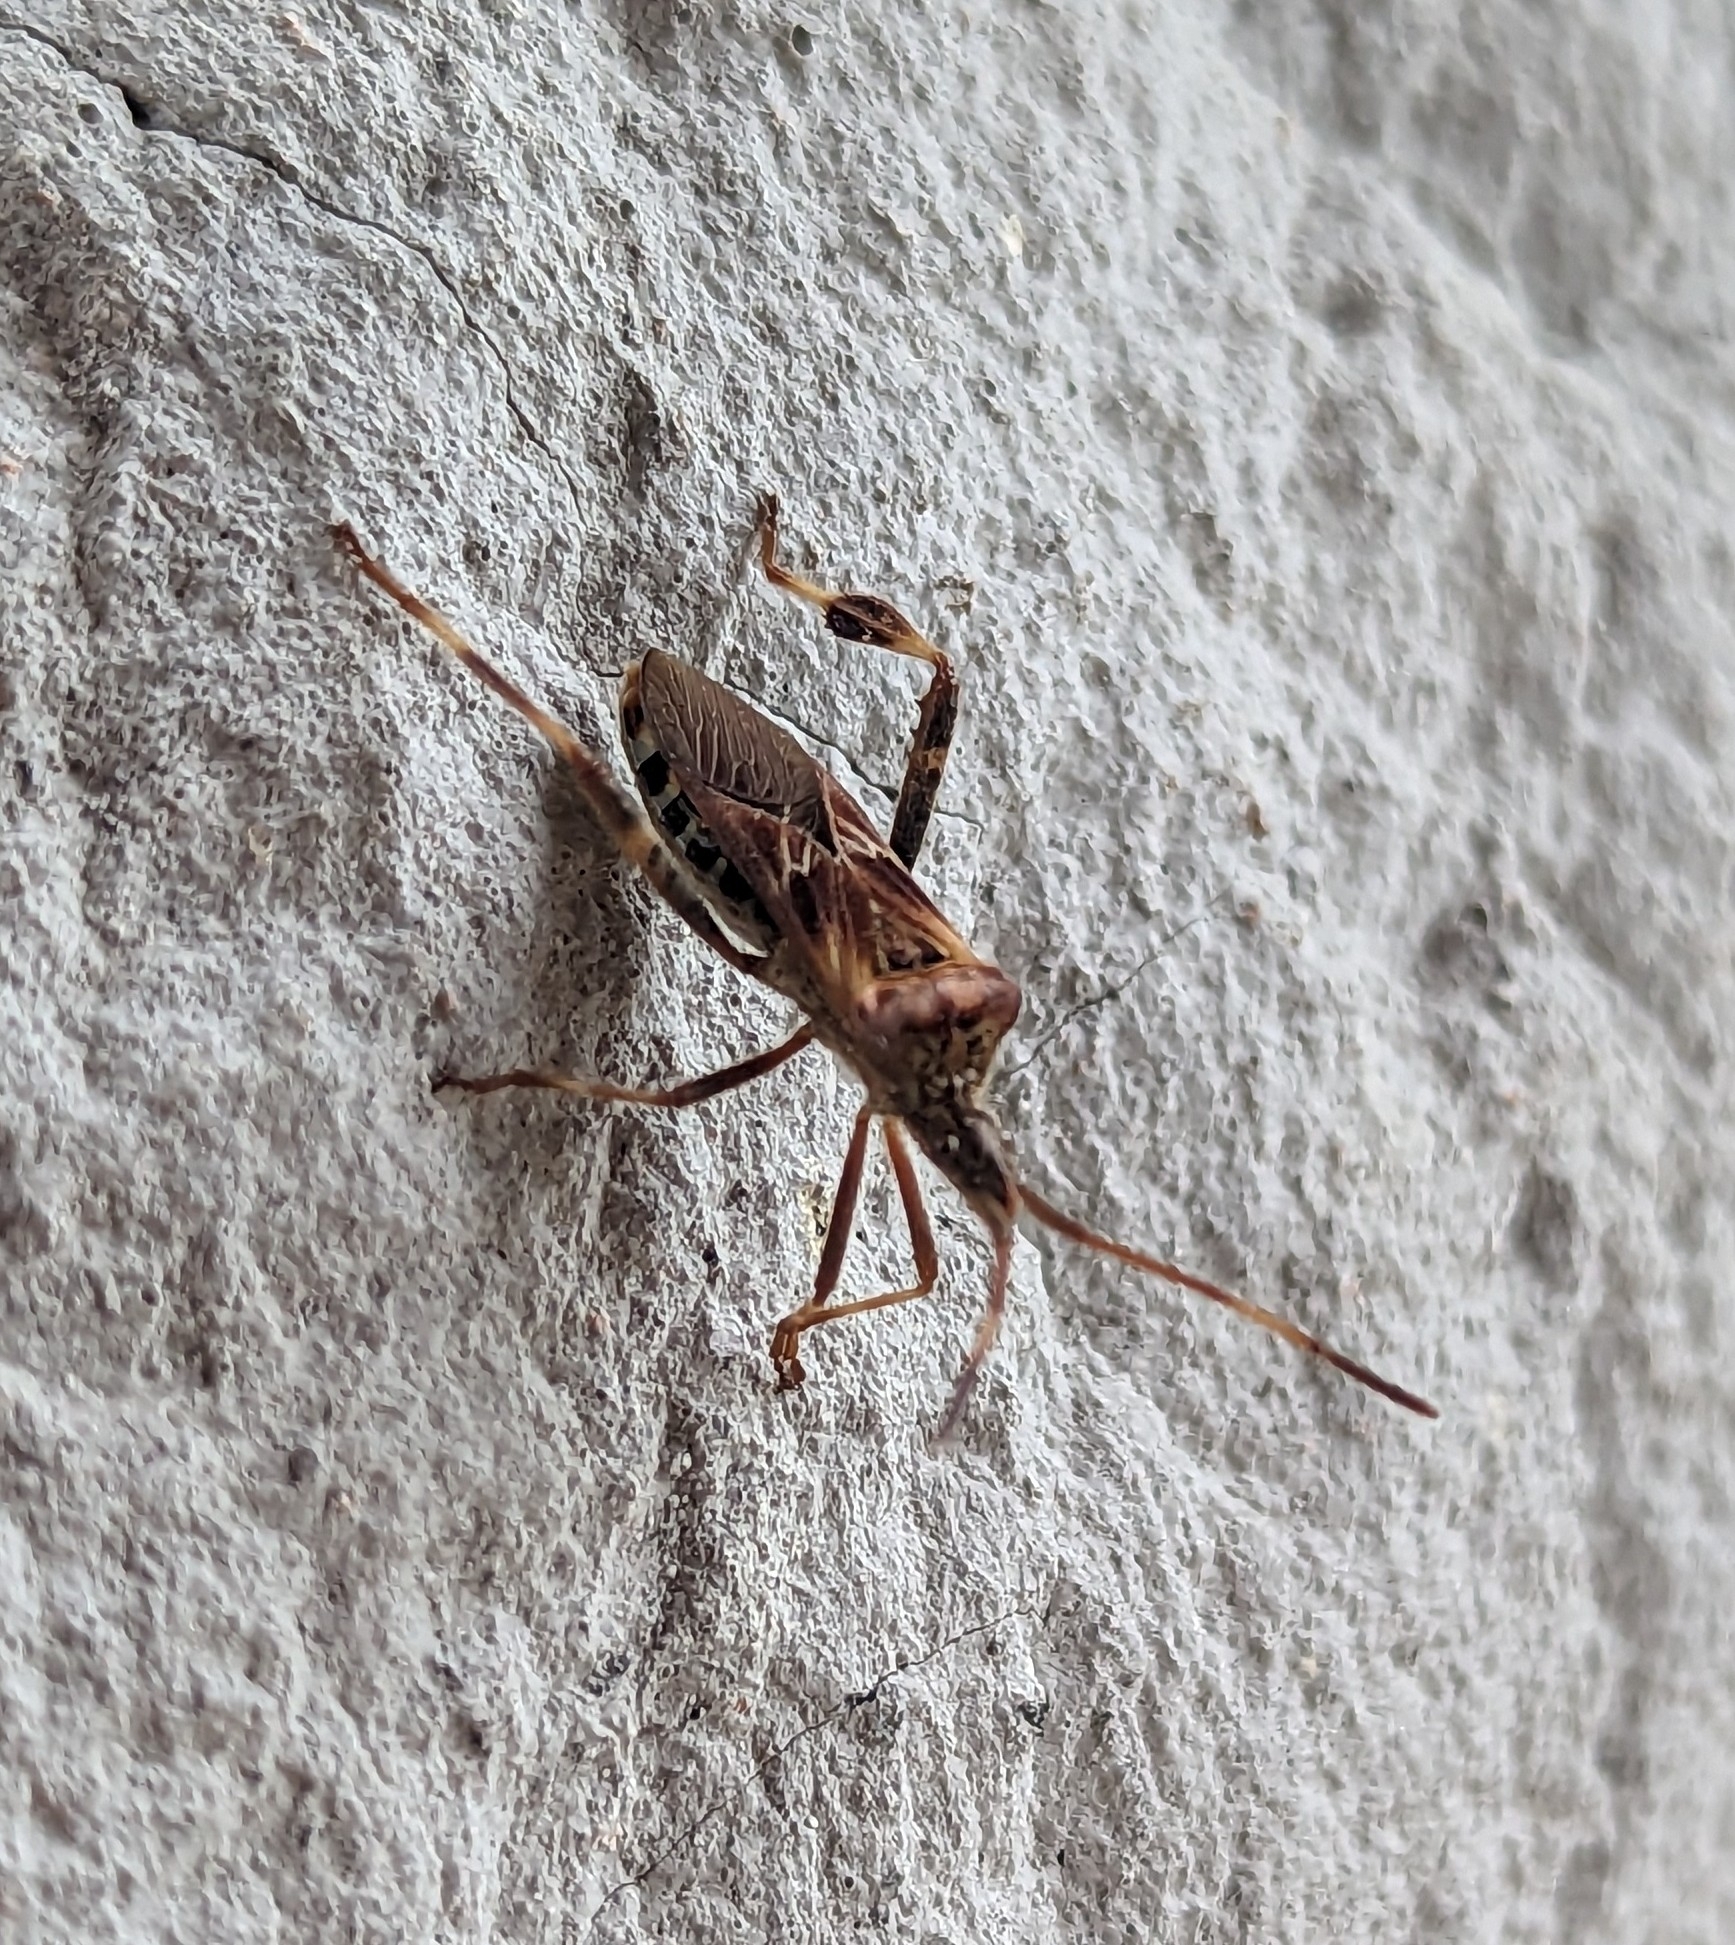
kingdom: Animalia
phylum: Arthropoda
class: Insecta
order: Hemiptera
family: Coreidae
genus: Leptoglossus
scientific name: Leptoglossus occidentalis
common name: Western conifer-seed bug
